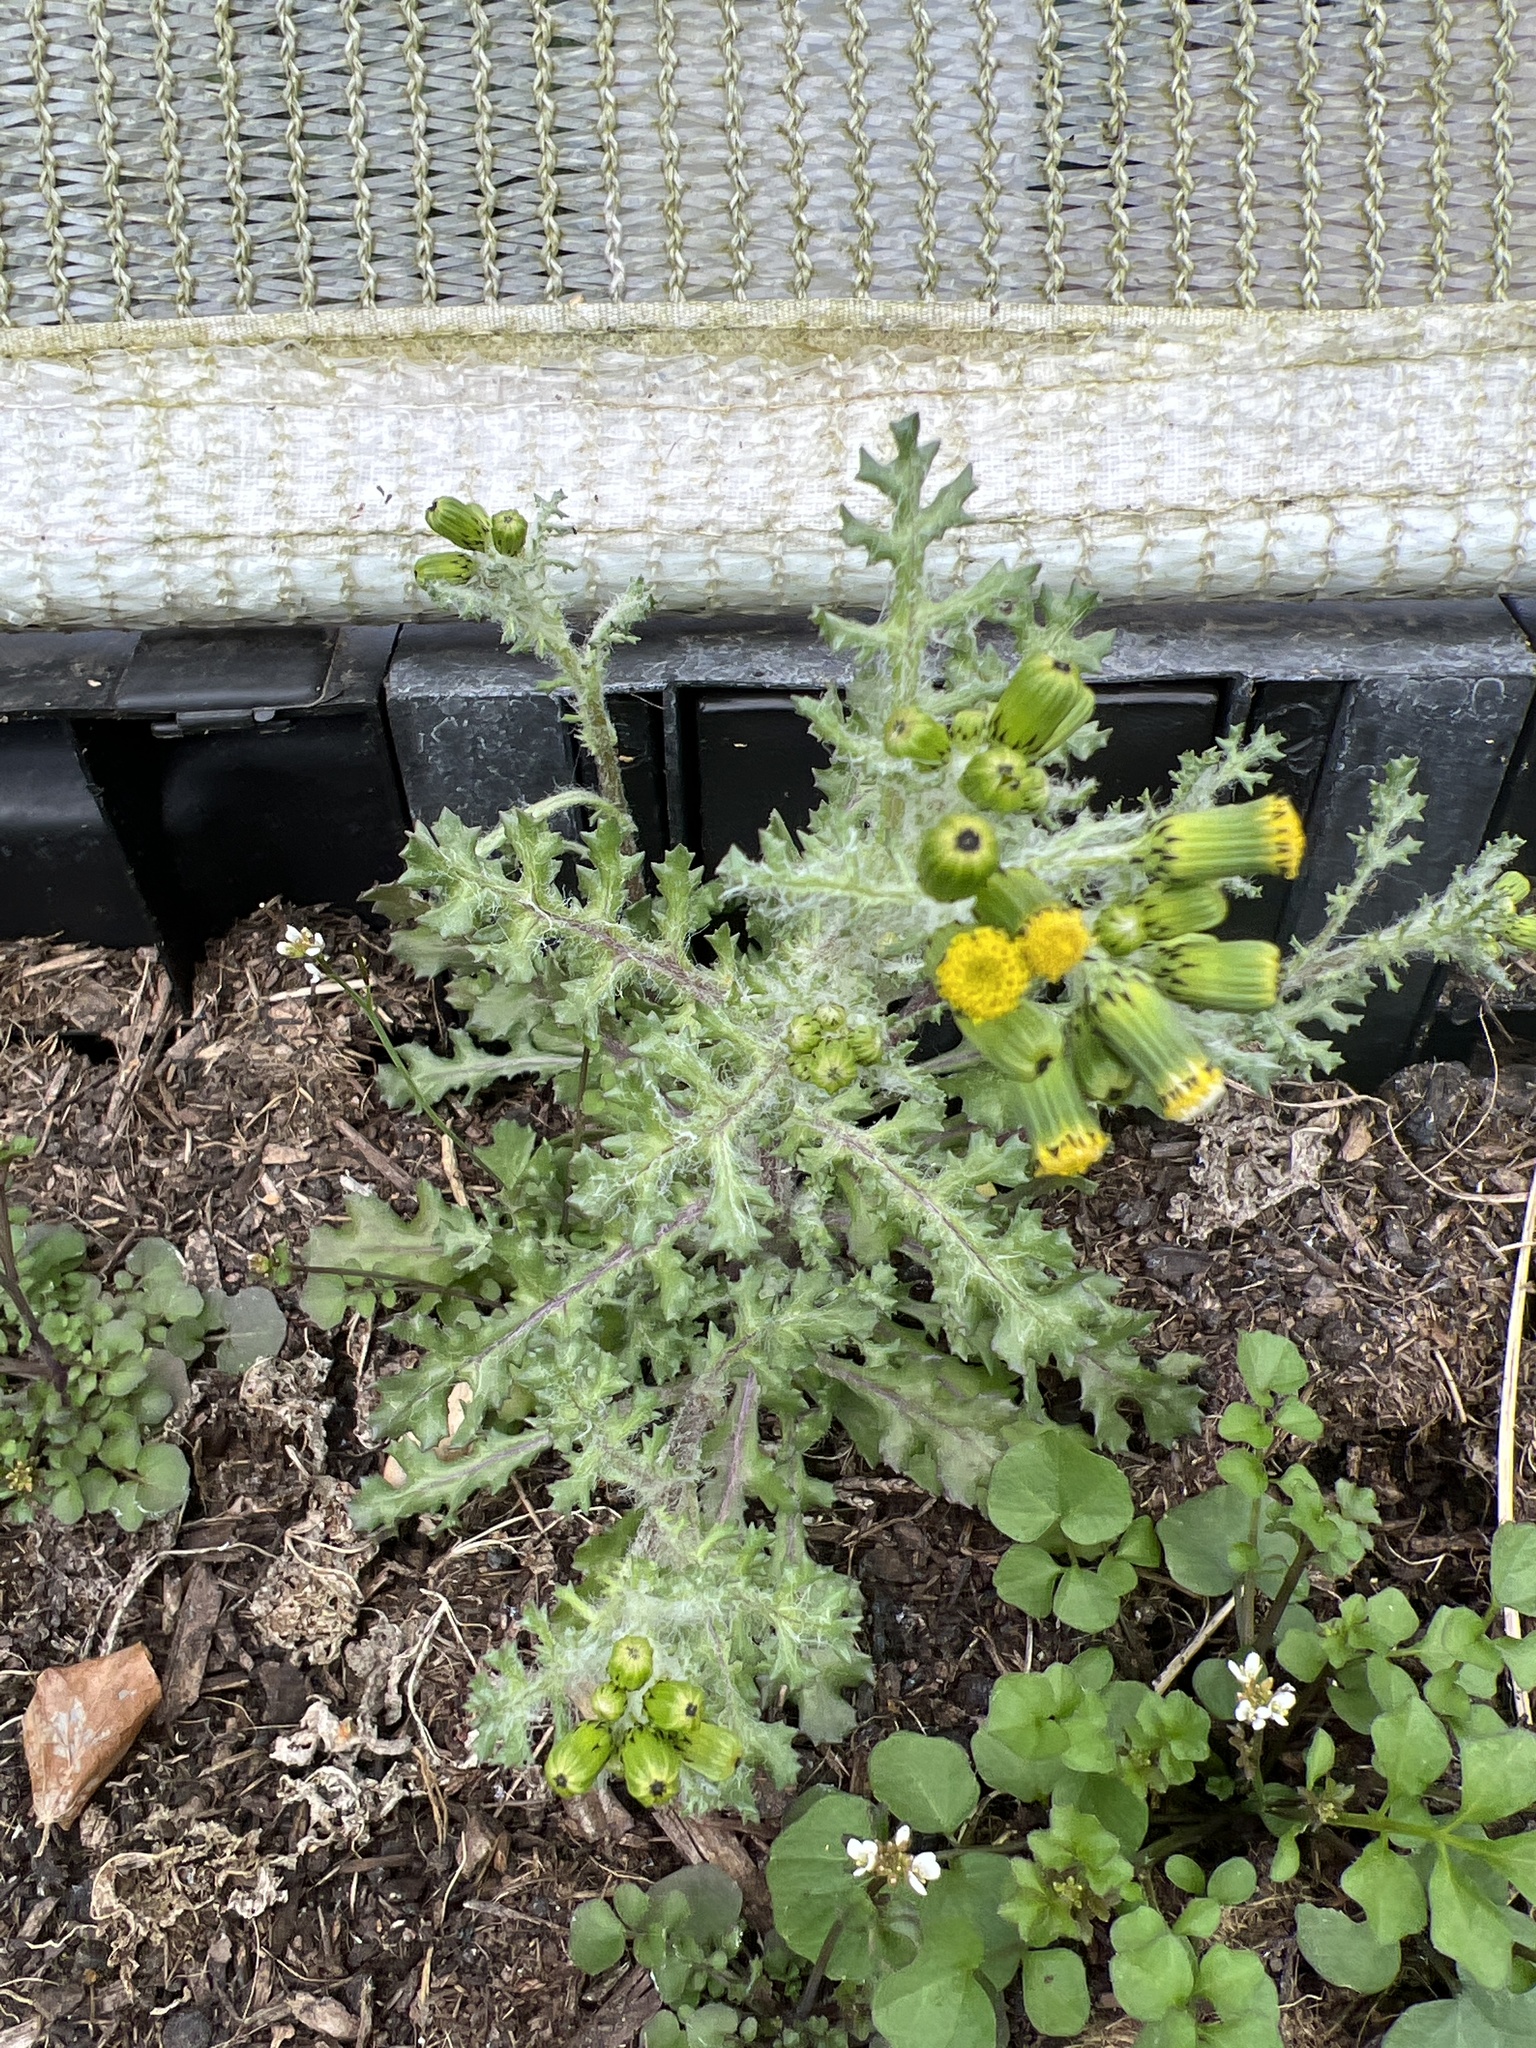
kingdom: Plantae
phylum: Tracheophyta
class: Magnoliopsida
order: Asterales
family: Asteraceae
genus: Senecio
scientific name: Senecio vulgaris
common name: Old-man-in-the-spring
